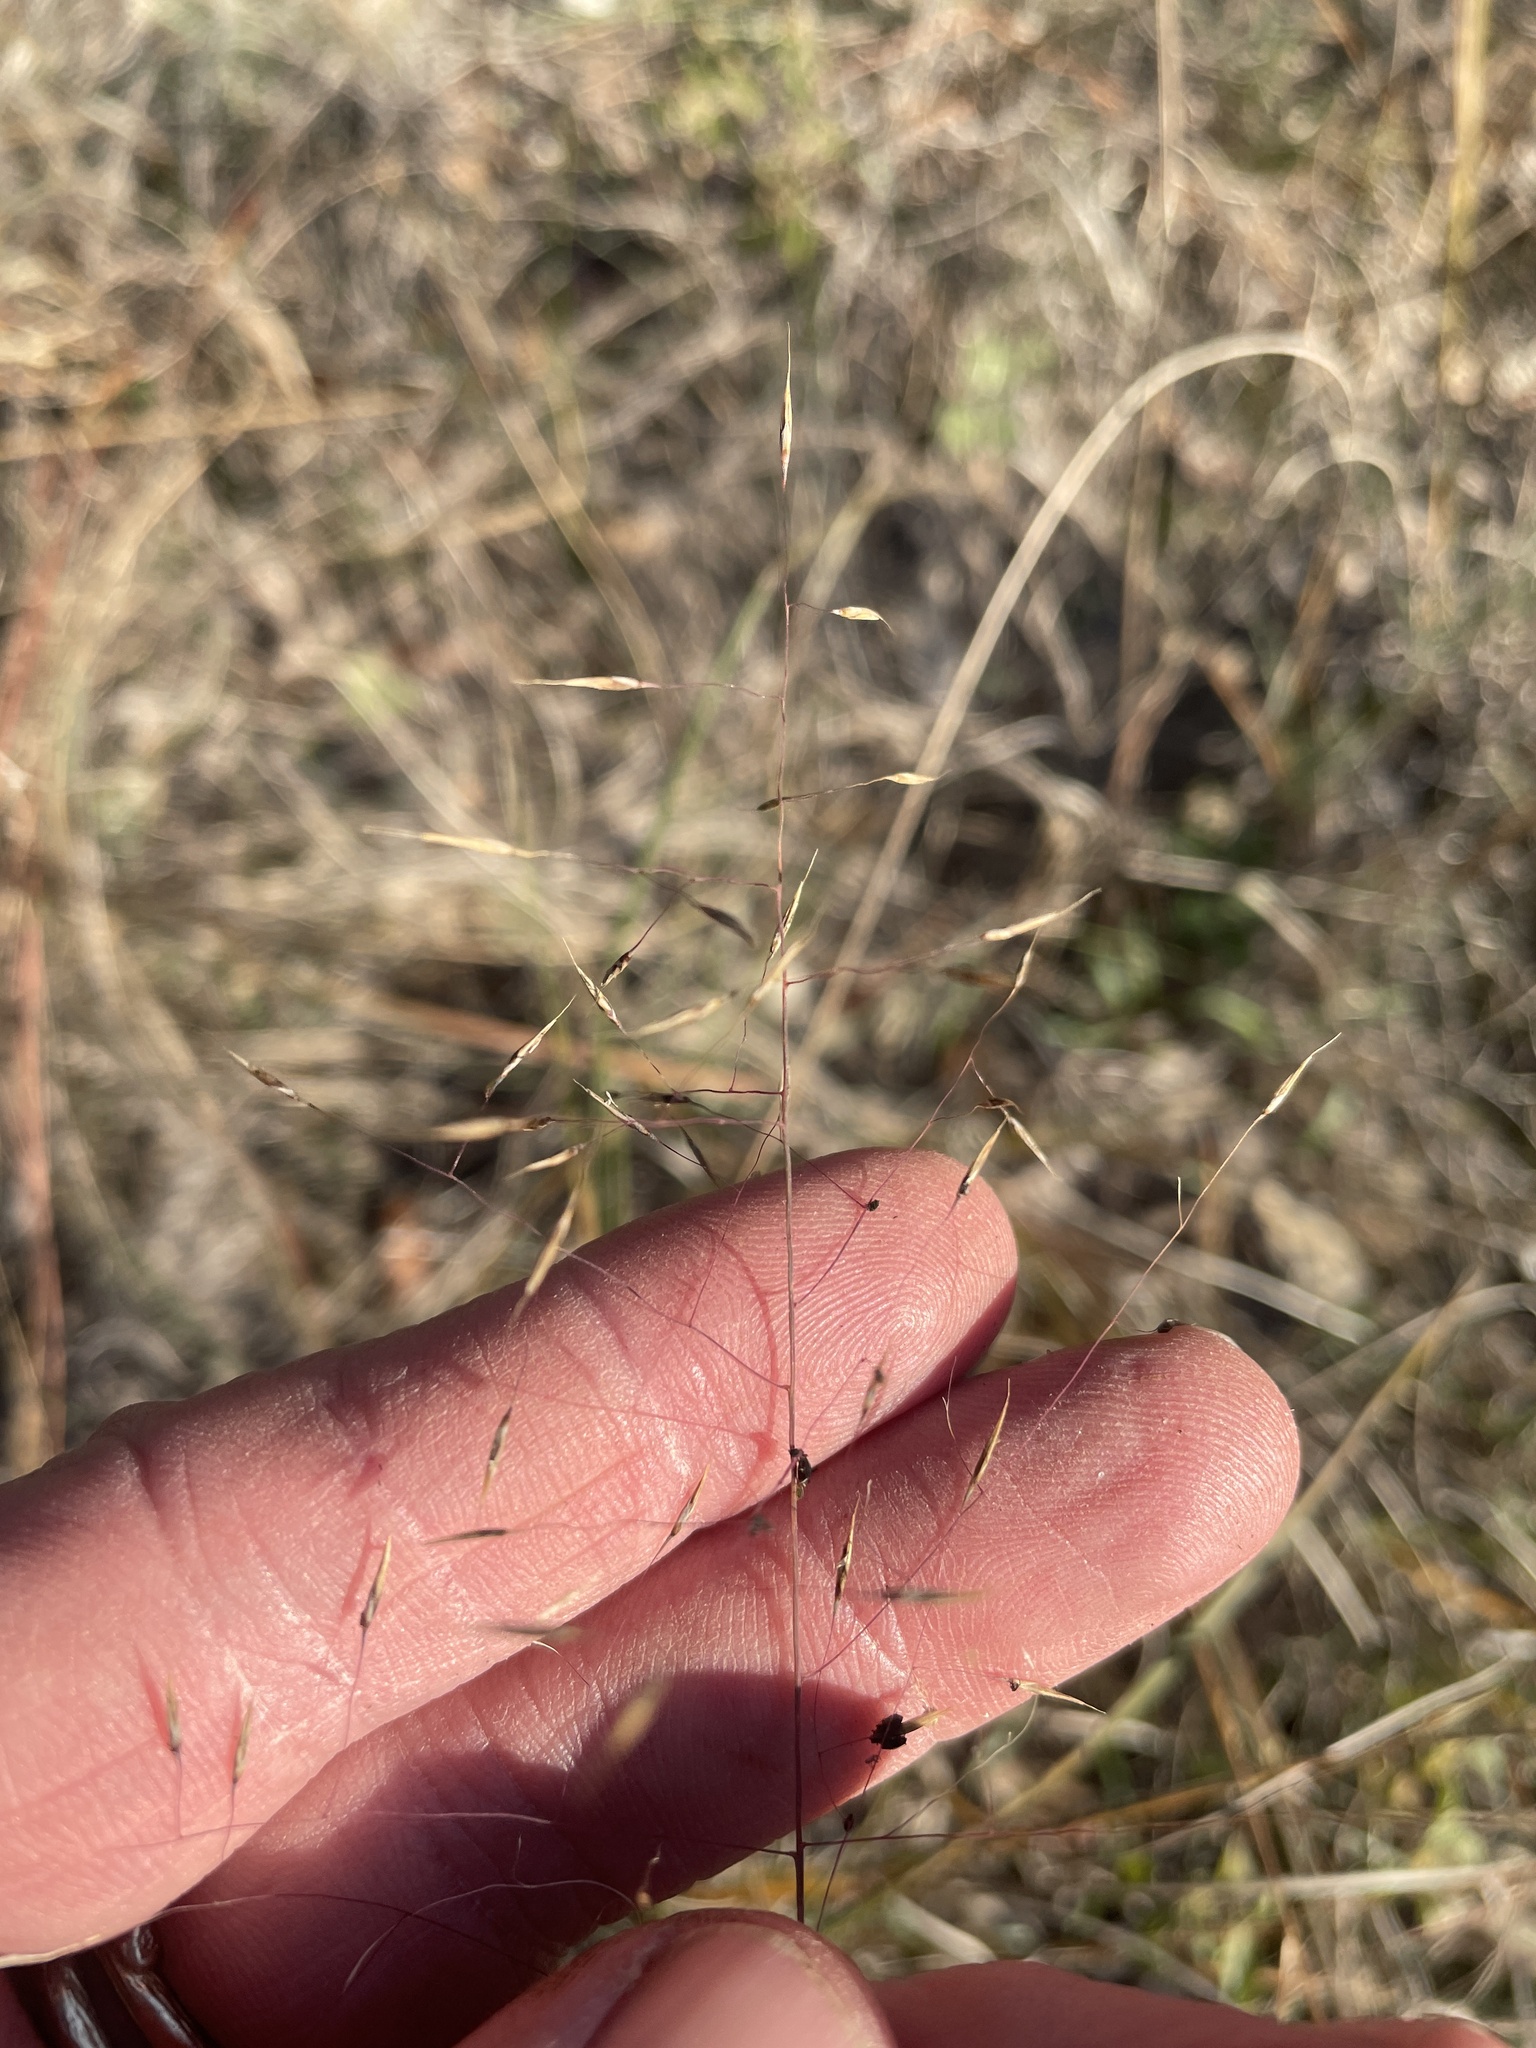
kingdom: Plantae
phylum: Tracheophyta
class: Liliopsida
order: Poales
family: Poaceae
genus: Muhlenbergia
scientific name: Muhlenbergia reverchonii
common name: Seep muhly
